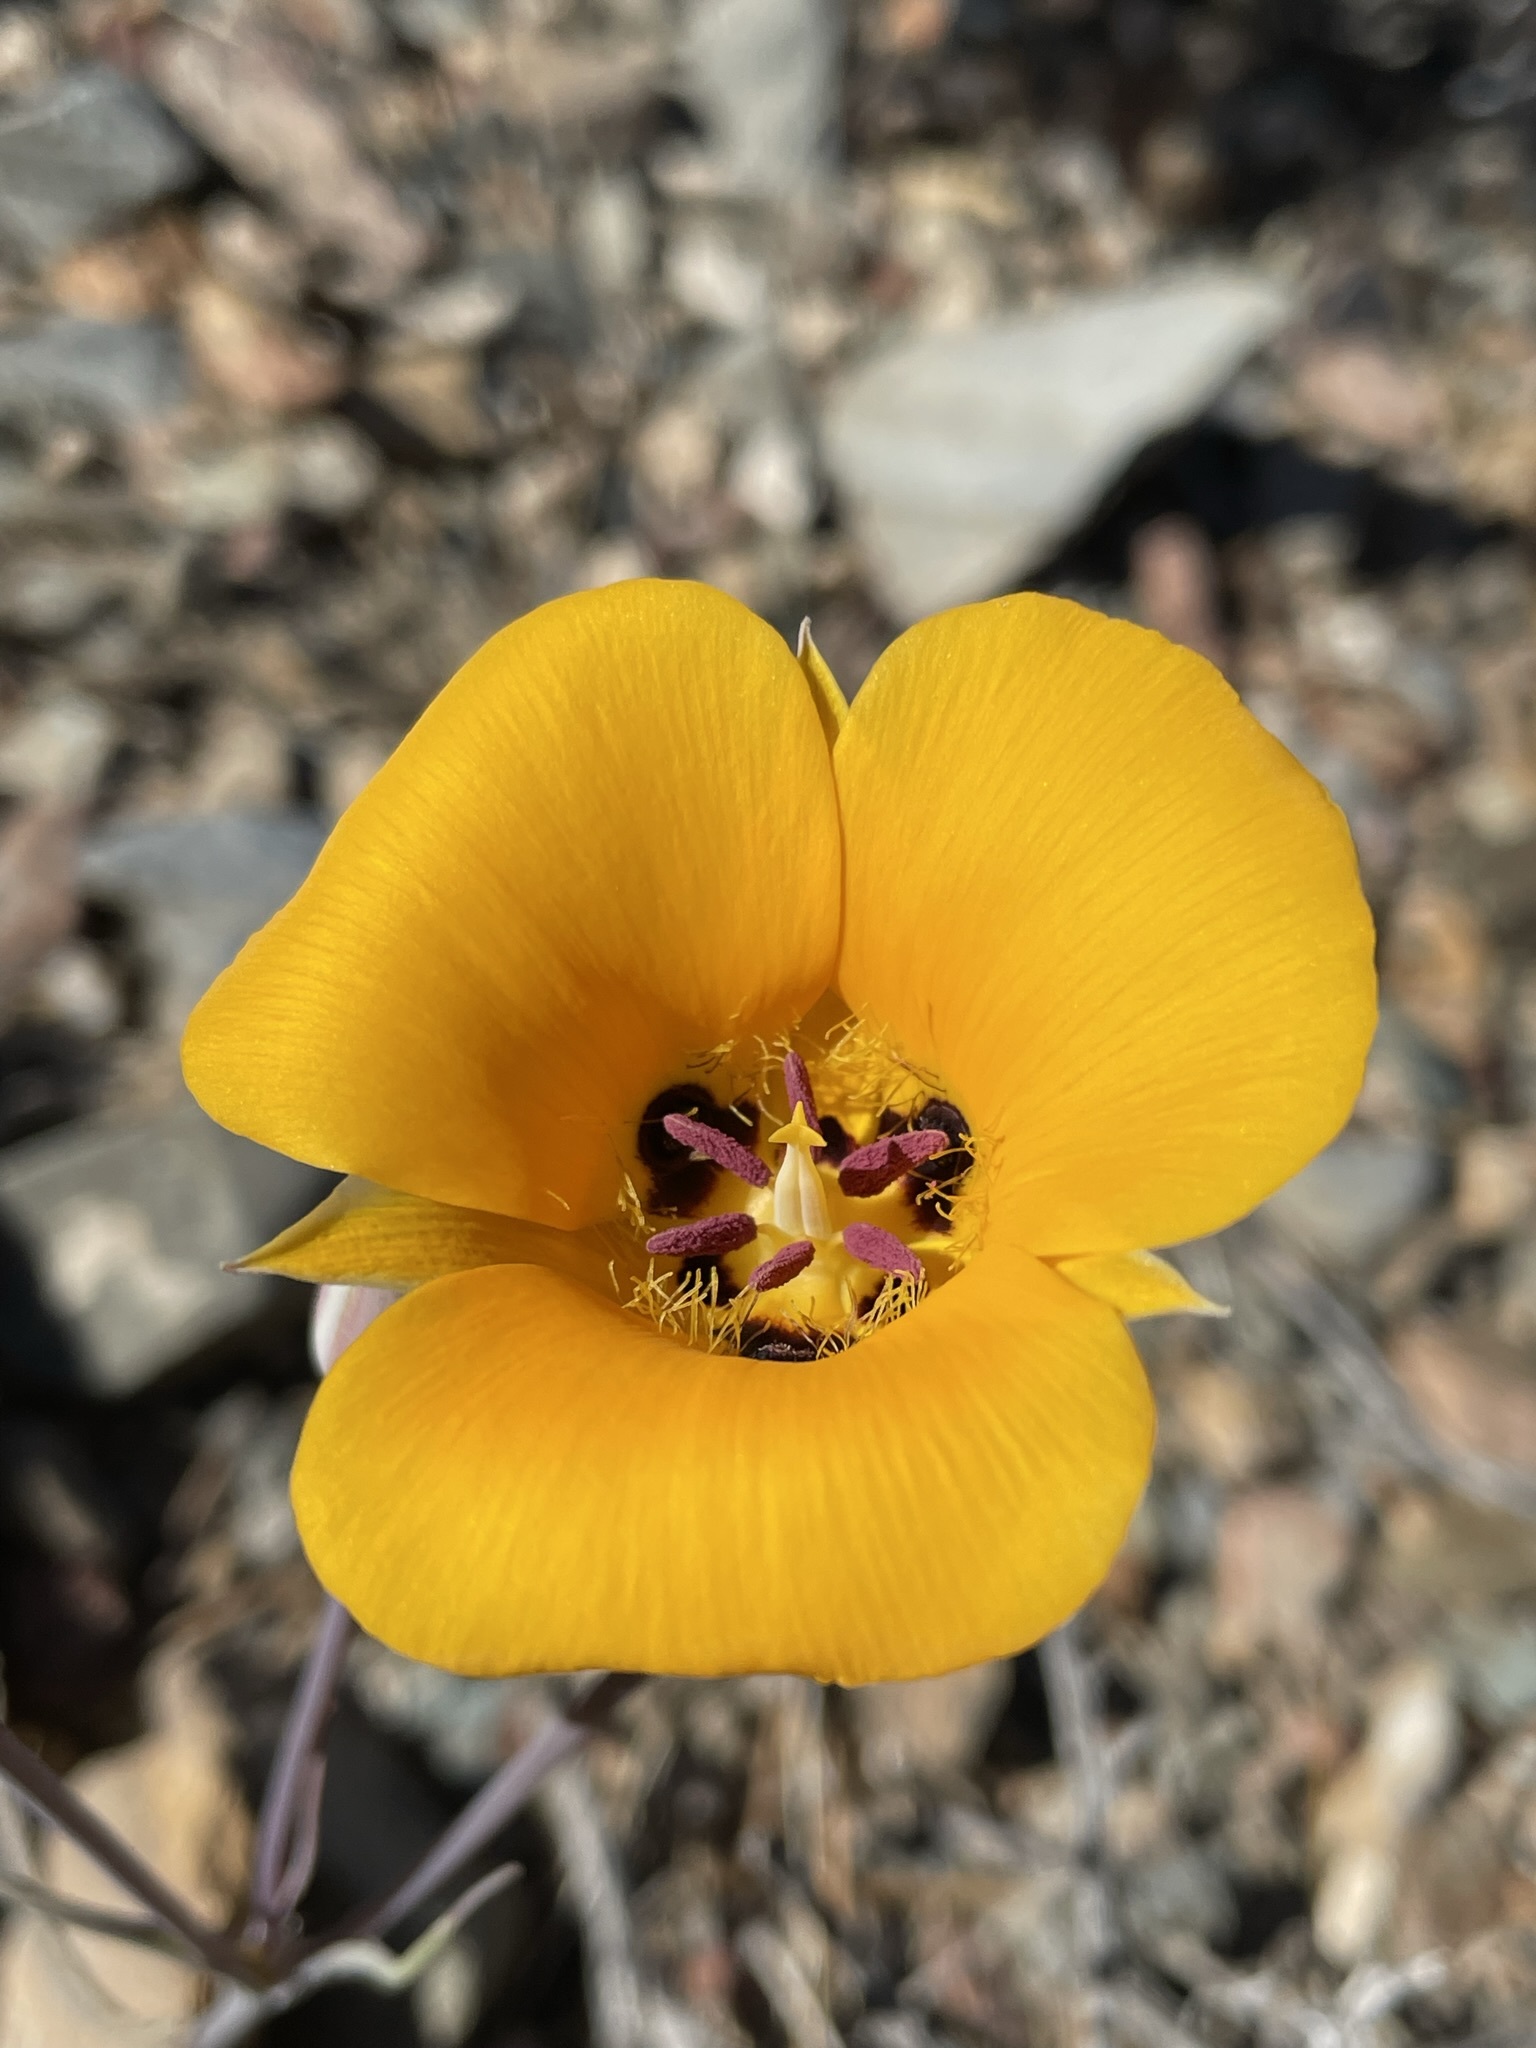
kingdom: Plantae
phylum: Tracheophyta
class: Liliopsida
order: Liliales
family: Liliaceae
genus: Calochortus
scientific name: Calochortus kennedyi
